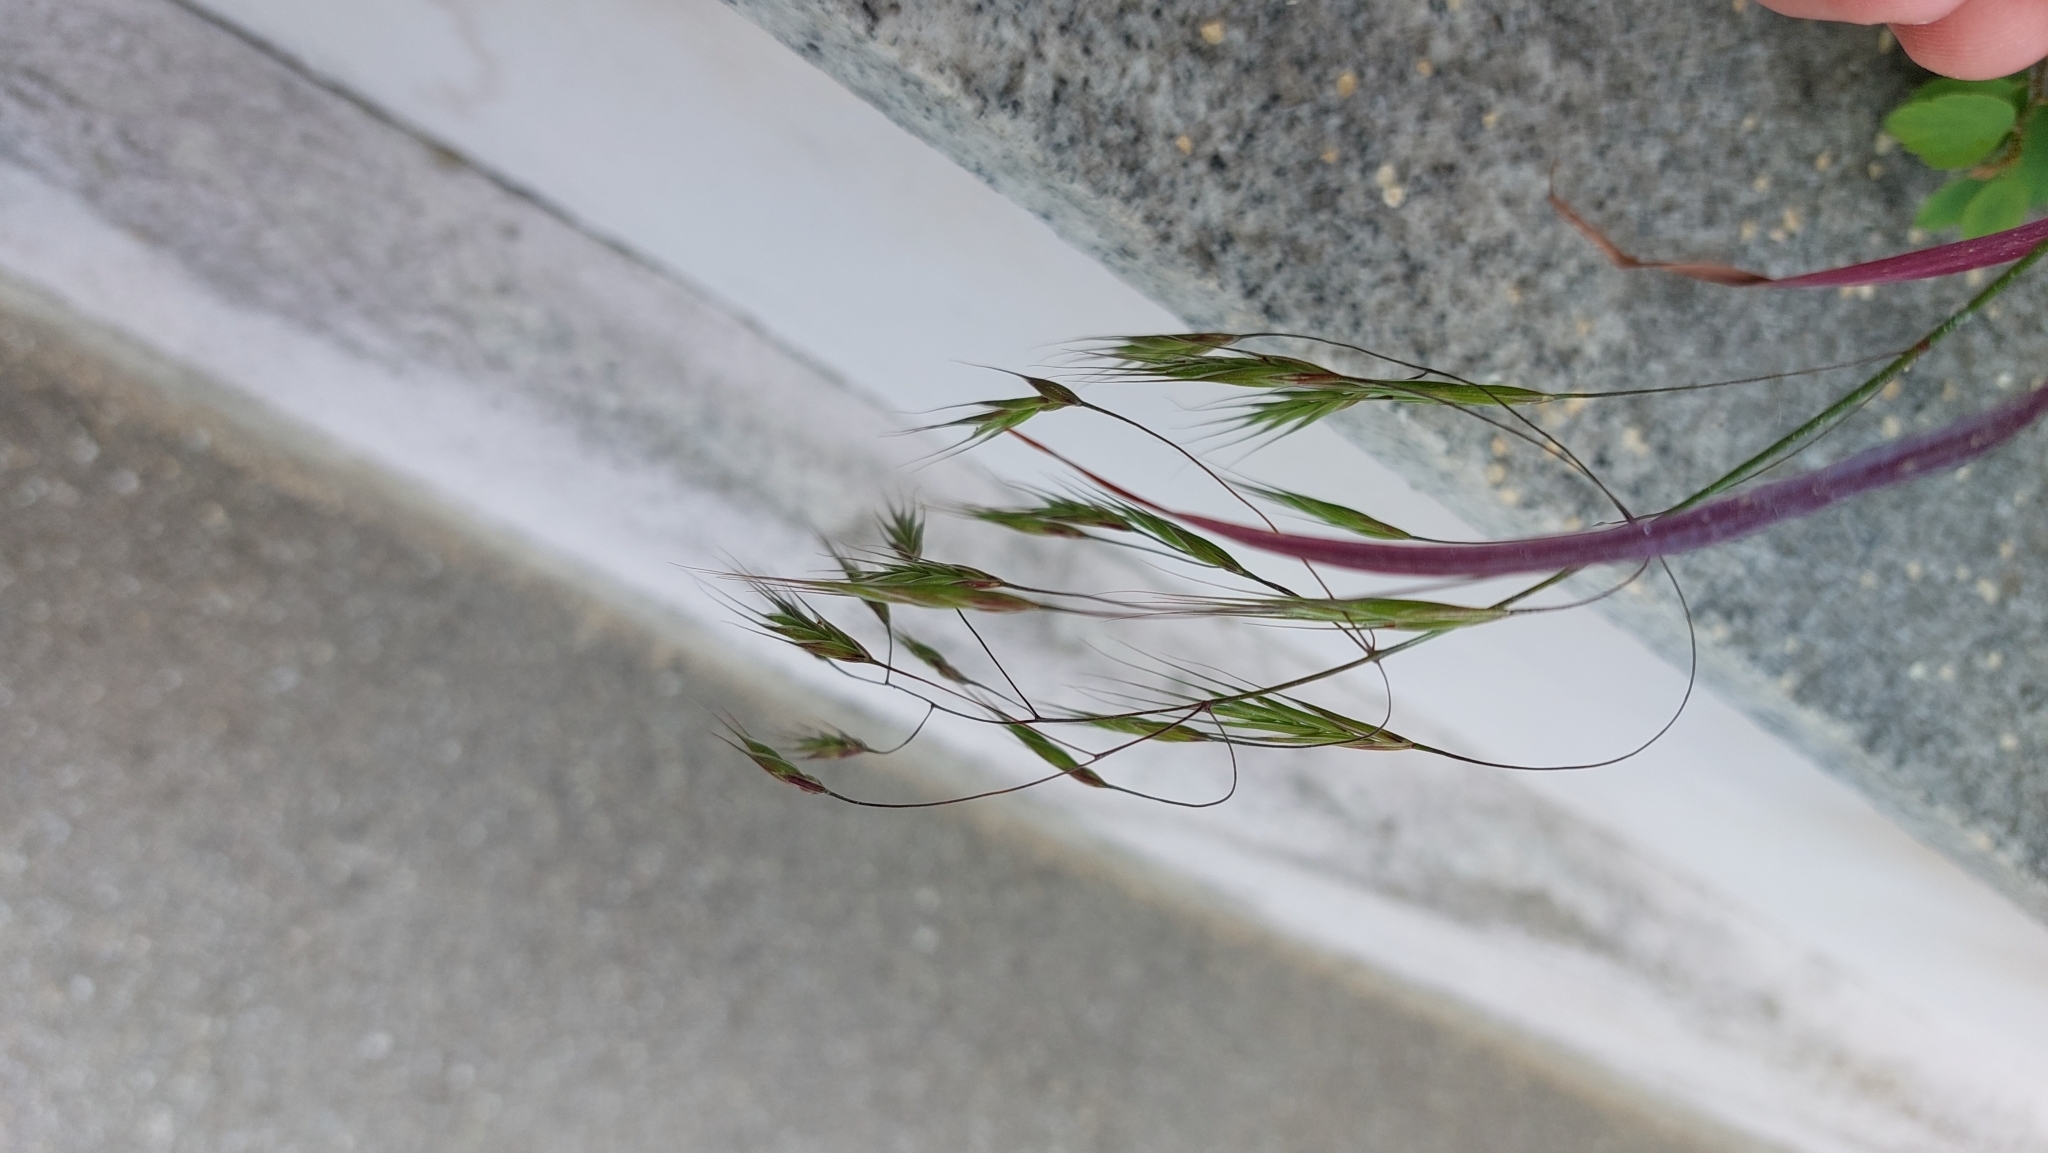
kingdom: Plantae
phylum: Tracheophyta
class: Liliopsida
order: Poales
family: Poaceae
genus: Bromus
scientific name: Bromus sterilis
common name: Poverty brome
